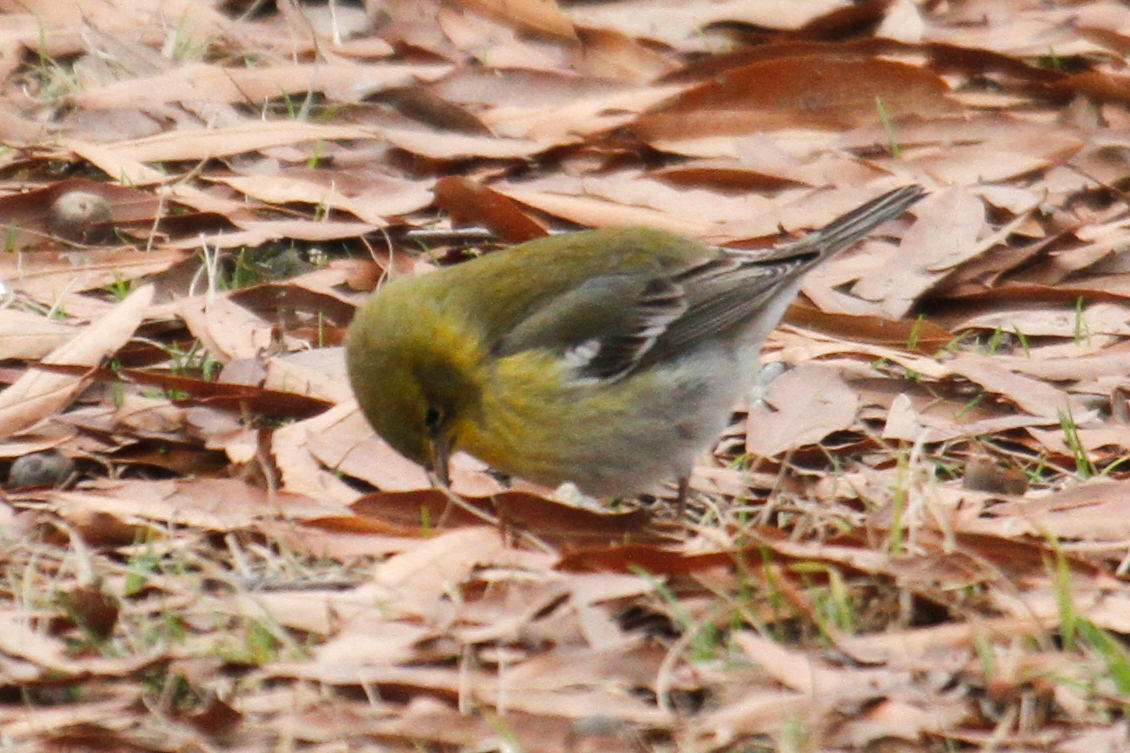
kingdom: Animalia
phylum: Chordata
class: Aves
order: Passeriformes
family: Parulidae
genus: Setophaga
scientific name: Setophaga pinus
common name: Pine warbler
